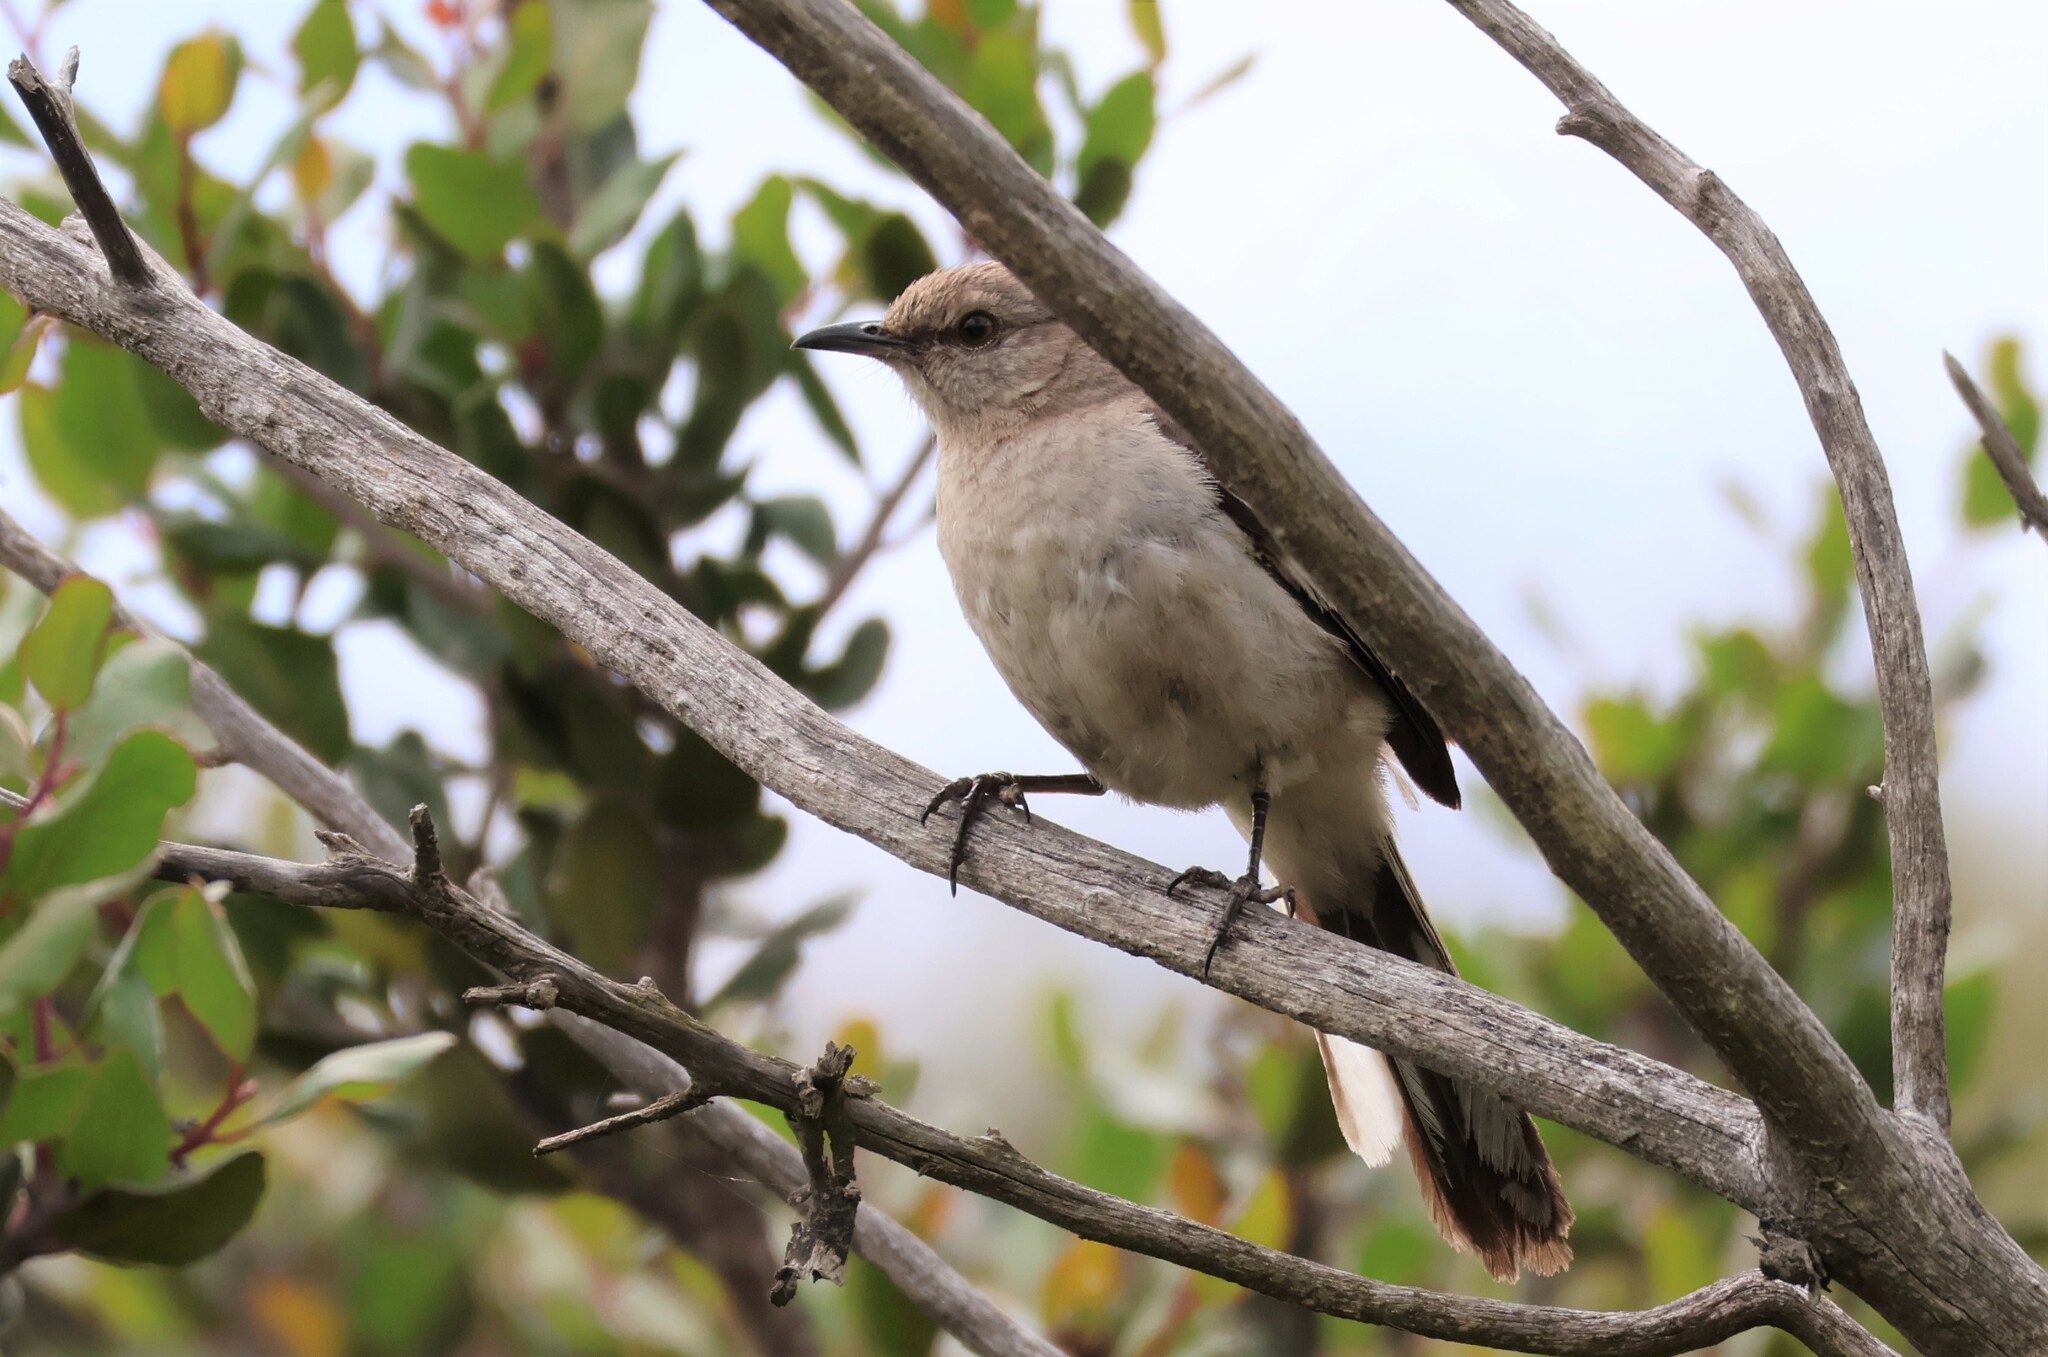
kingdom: Animalia
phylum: Chordata
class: Aves
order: Passeriformes
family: Mimidae
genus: Mimus
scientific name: Mimus polyglottos
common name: Northern mockingbird
